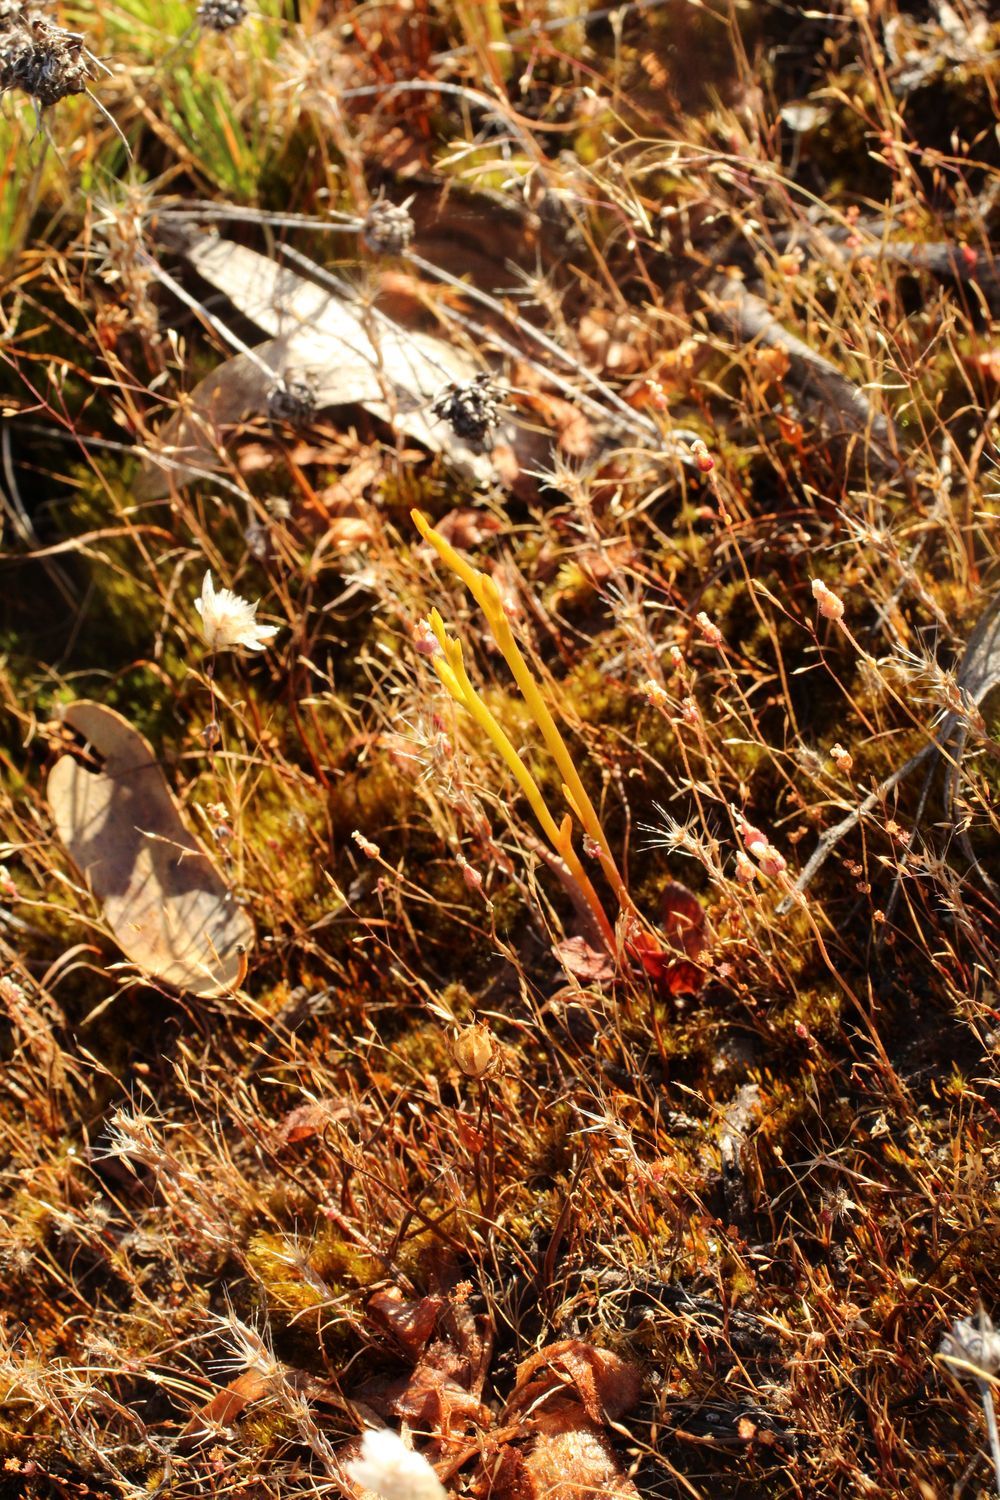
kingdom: Plantae
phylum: Tracheophyta
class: Liliopsida
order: Asparagales
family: Orchidaceae
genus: Spiculaea
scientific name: Spiculaea ciliata
